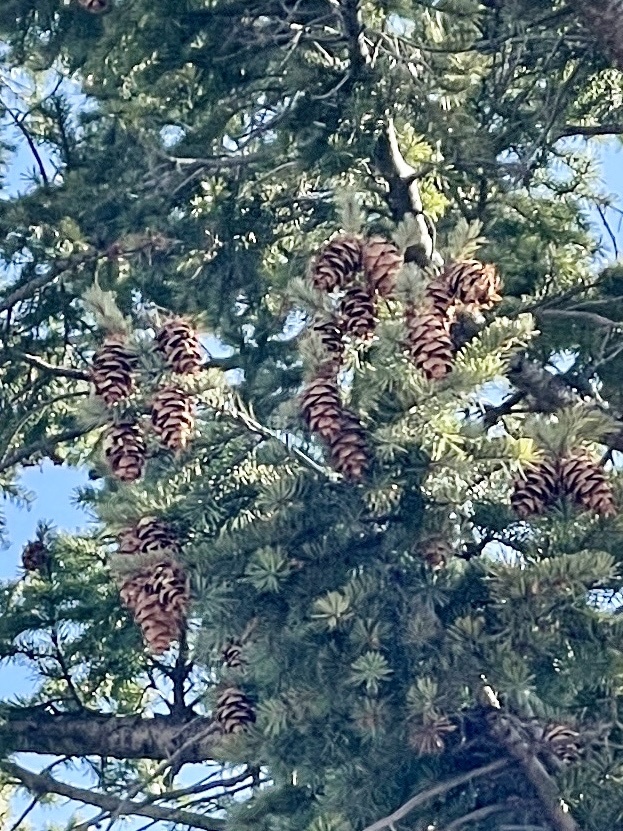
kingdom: Plantae
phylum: Tracheophyta
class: Pinopsida
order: Pinales
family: Pinaceae
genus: Pseudotsuga
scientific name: Pseudotsuga menziesii
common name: Douglas fir
